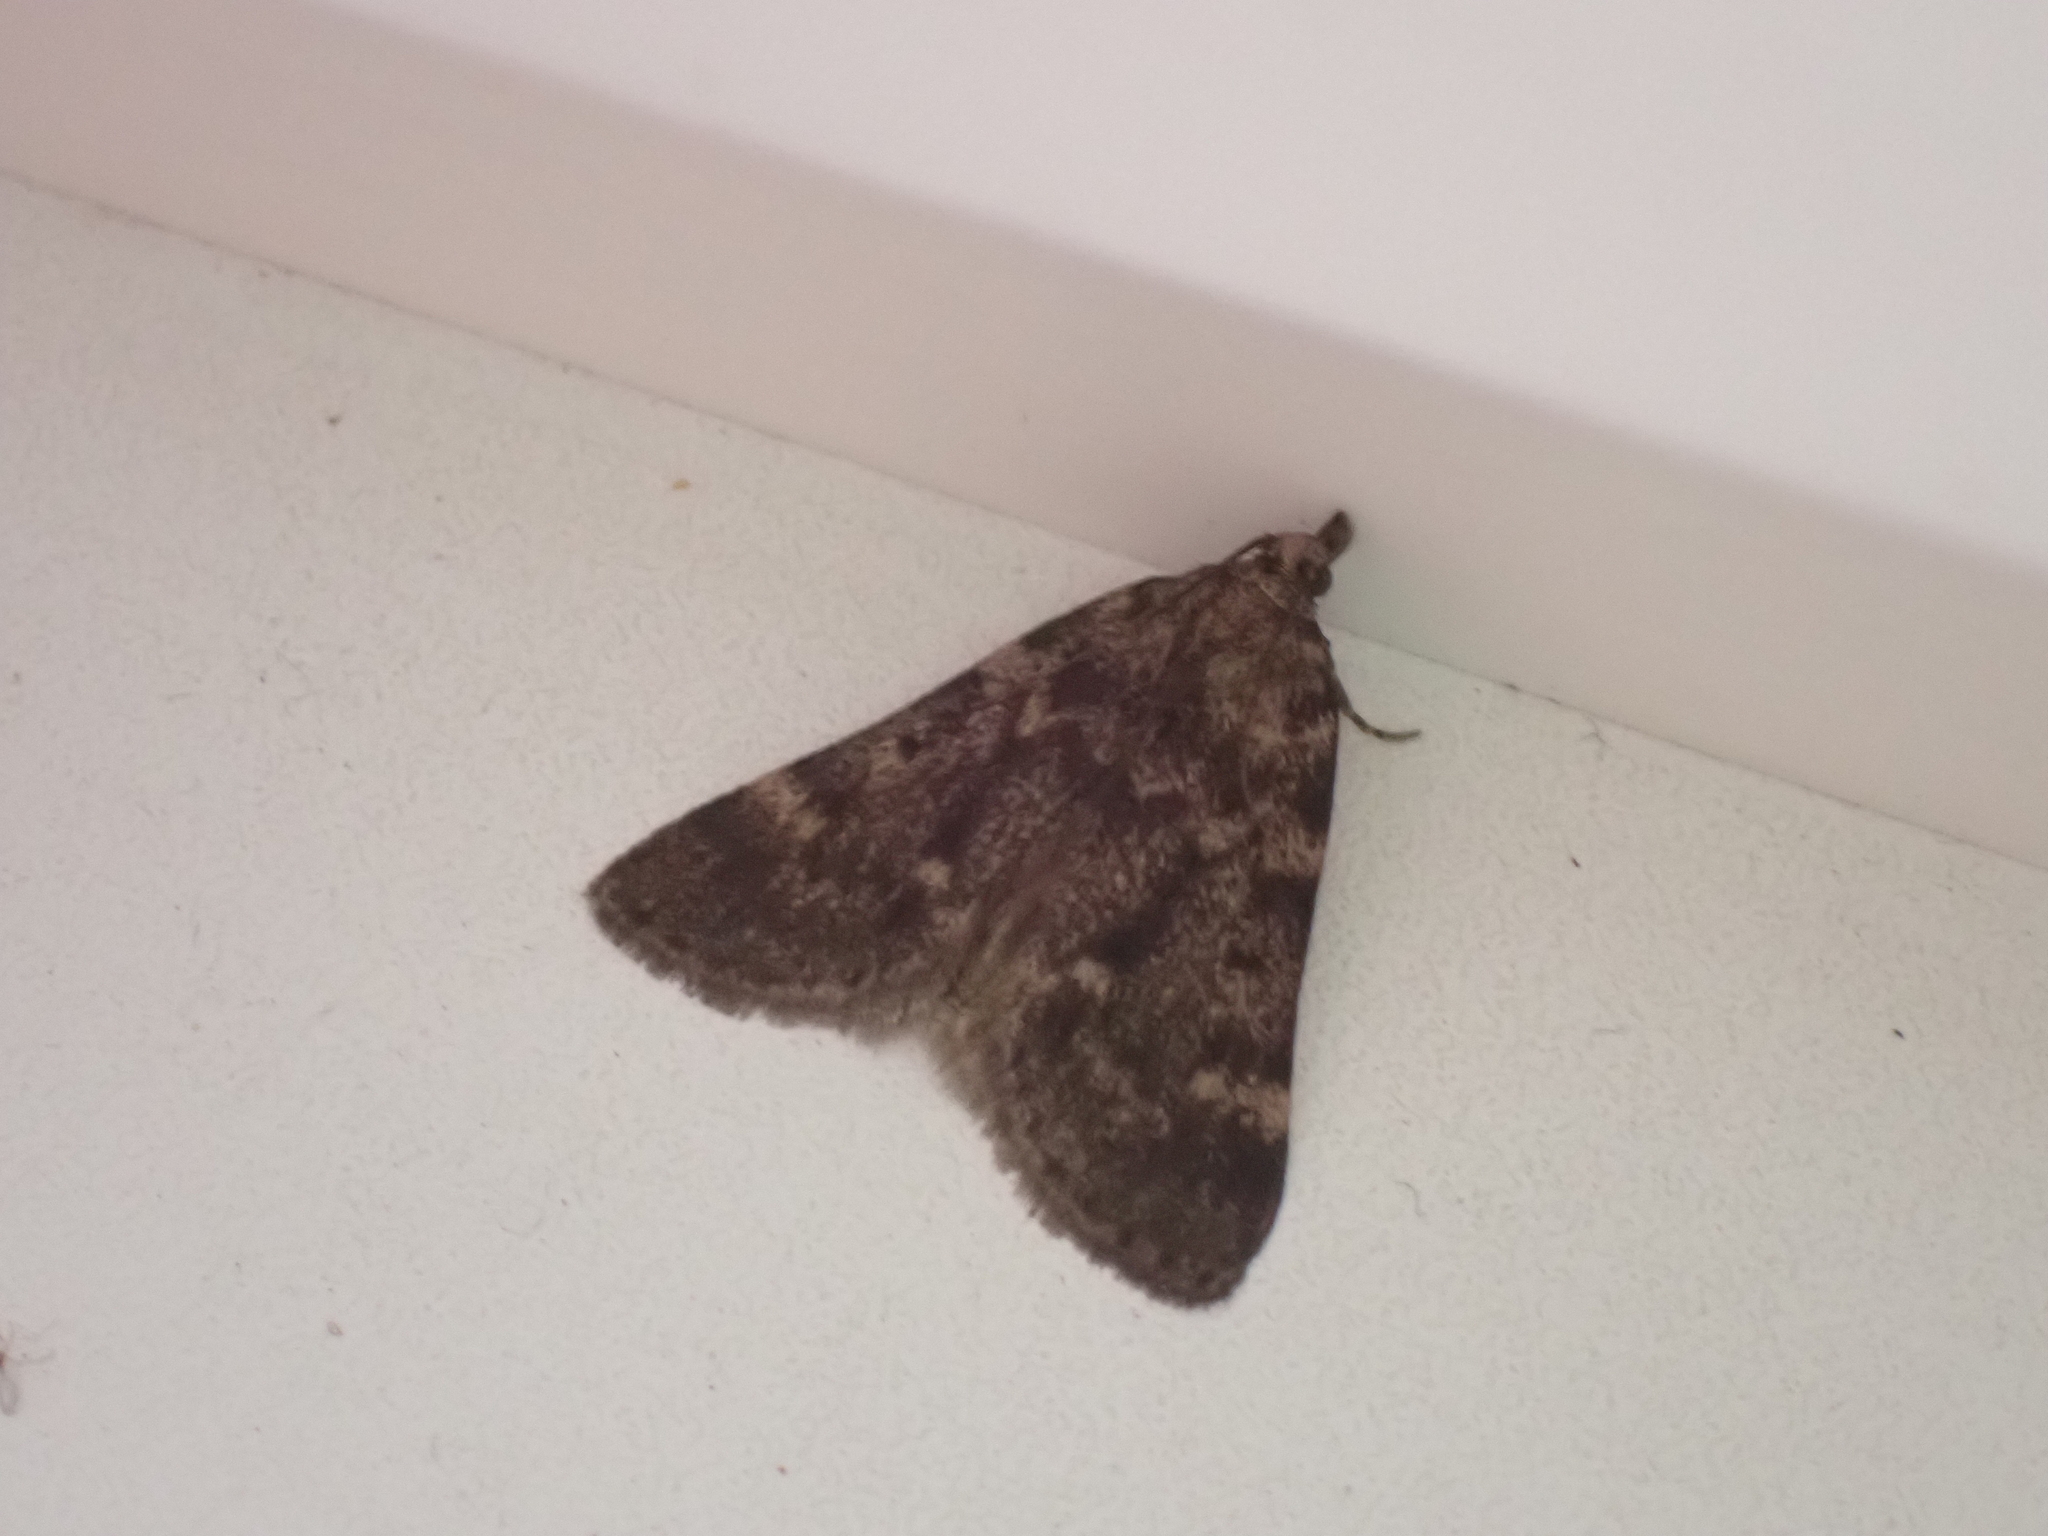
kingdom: Animalia
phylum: Arthropoda
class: Insecta
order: Lepidoptera
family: Pyralidae
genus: Aglossa
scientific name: Aglossa pinguinalis
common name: Large tabby
